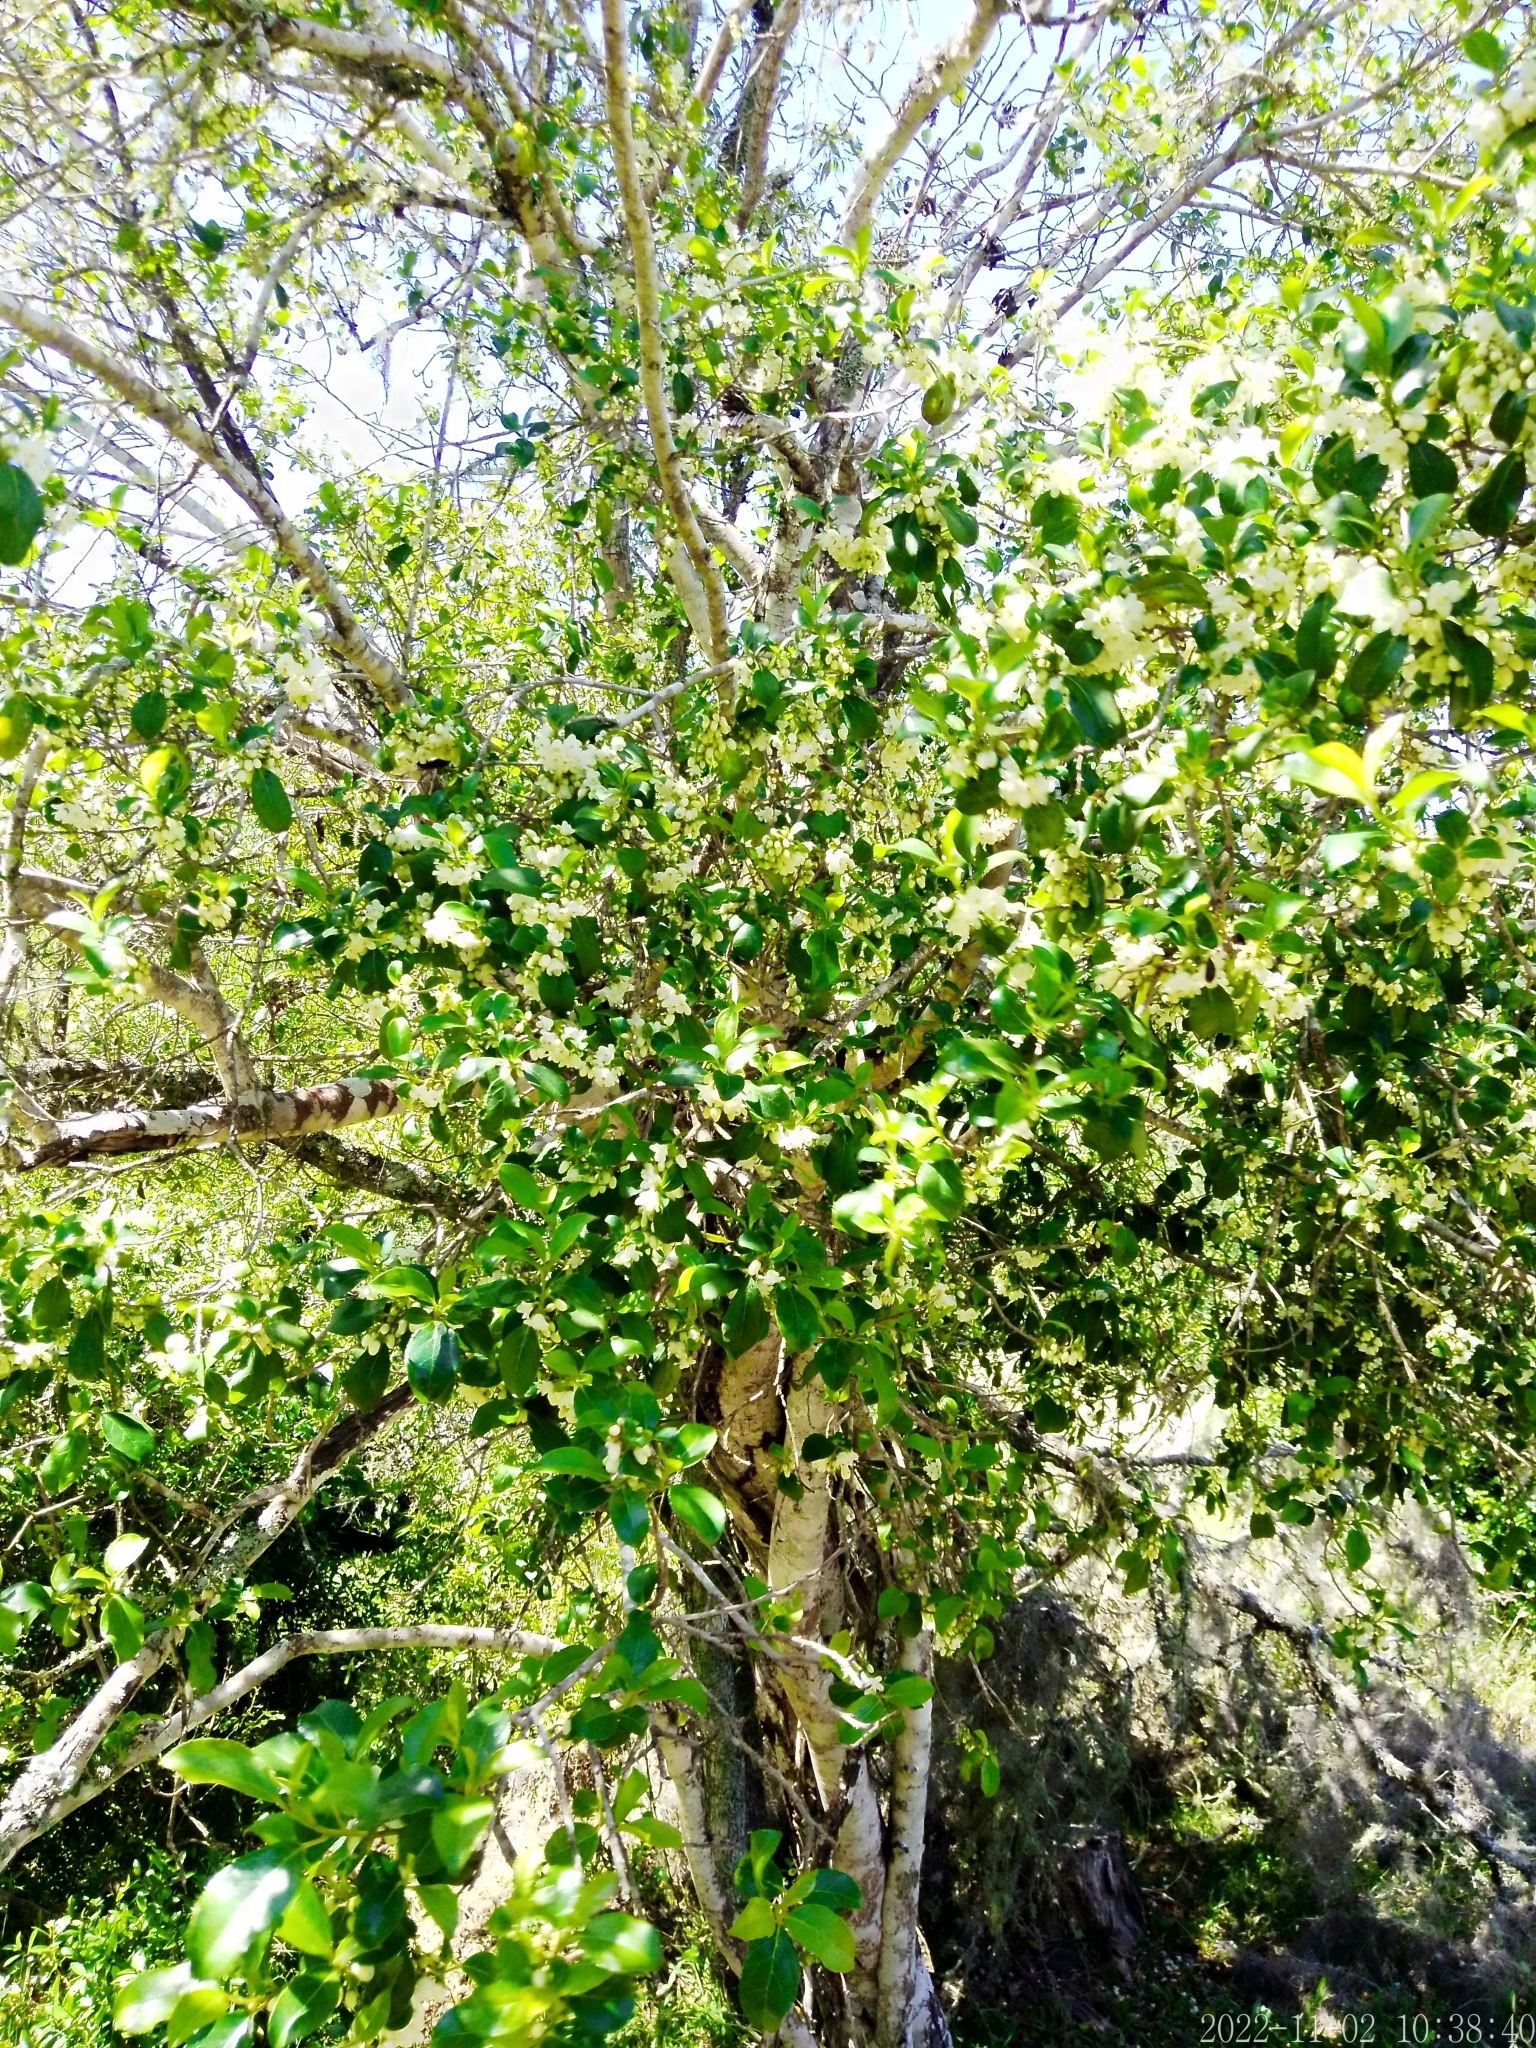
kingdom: Plantae
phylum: Tracheophyta
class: Magnoliopsida
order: Ericales
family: Symplocaceae
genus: Symplocos
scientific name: Symplocos uniflora
